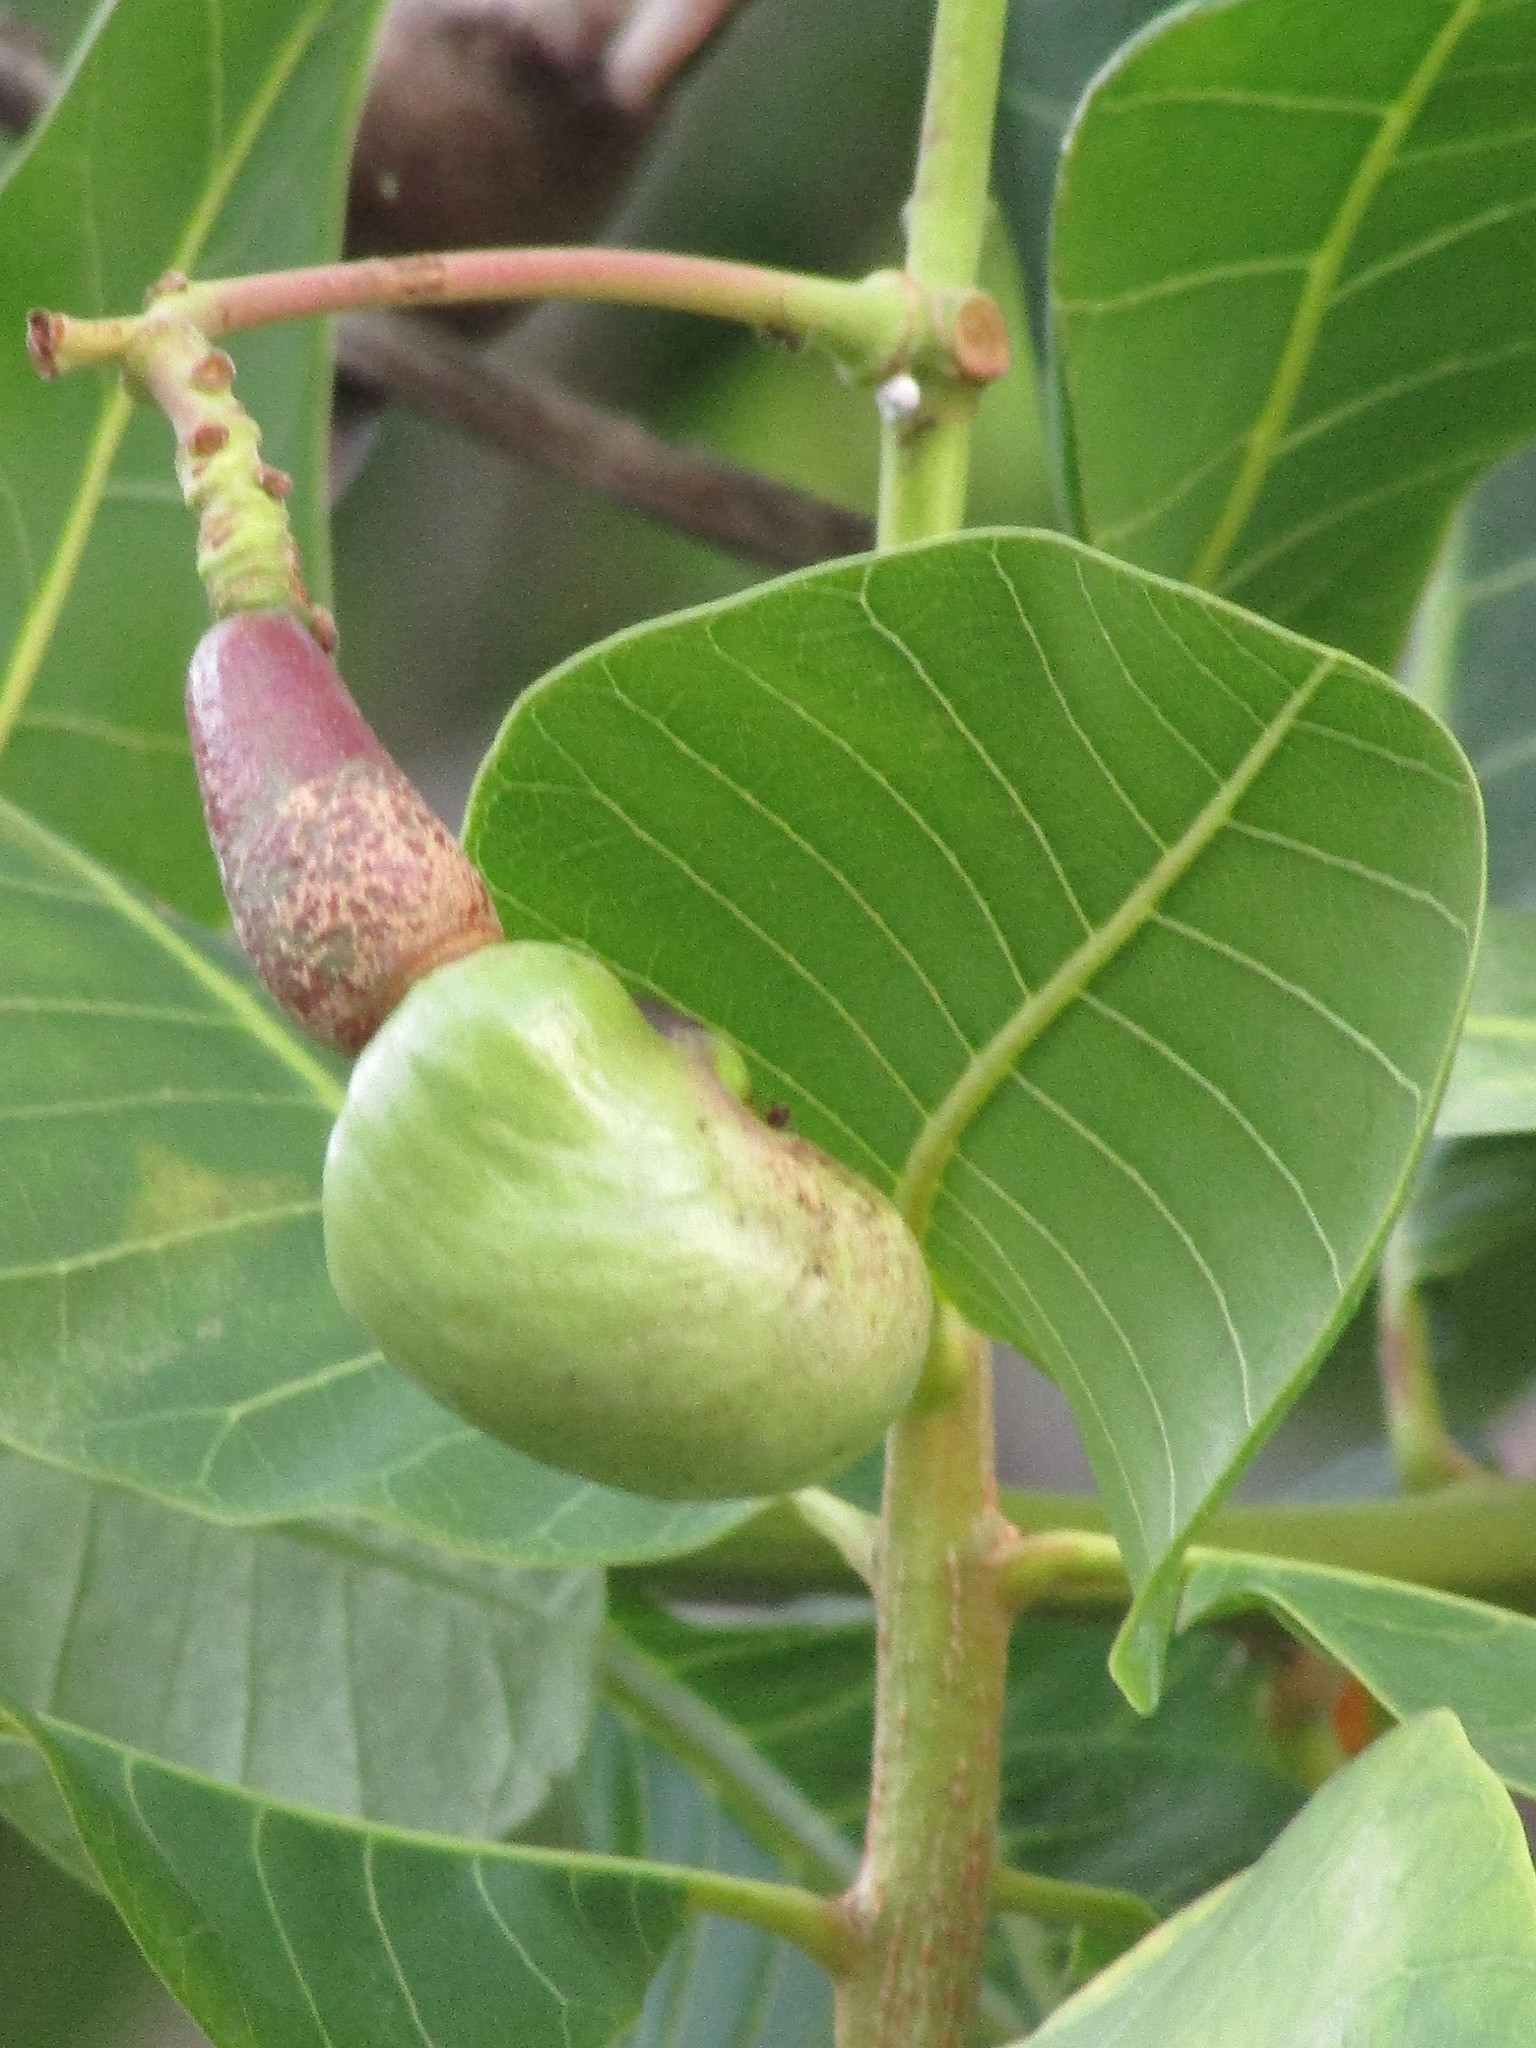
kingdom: Plantae
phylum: Tracheophyta
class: Magnoliopsida
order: Sapindales
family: Anacardiaceae
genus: Anacardium
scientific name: Anacardium occidentale
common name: Cashew
